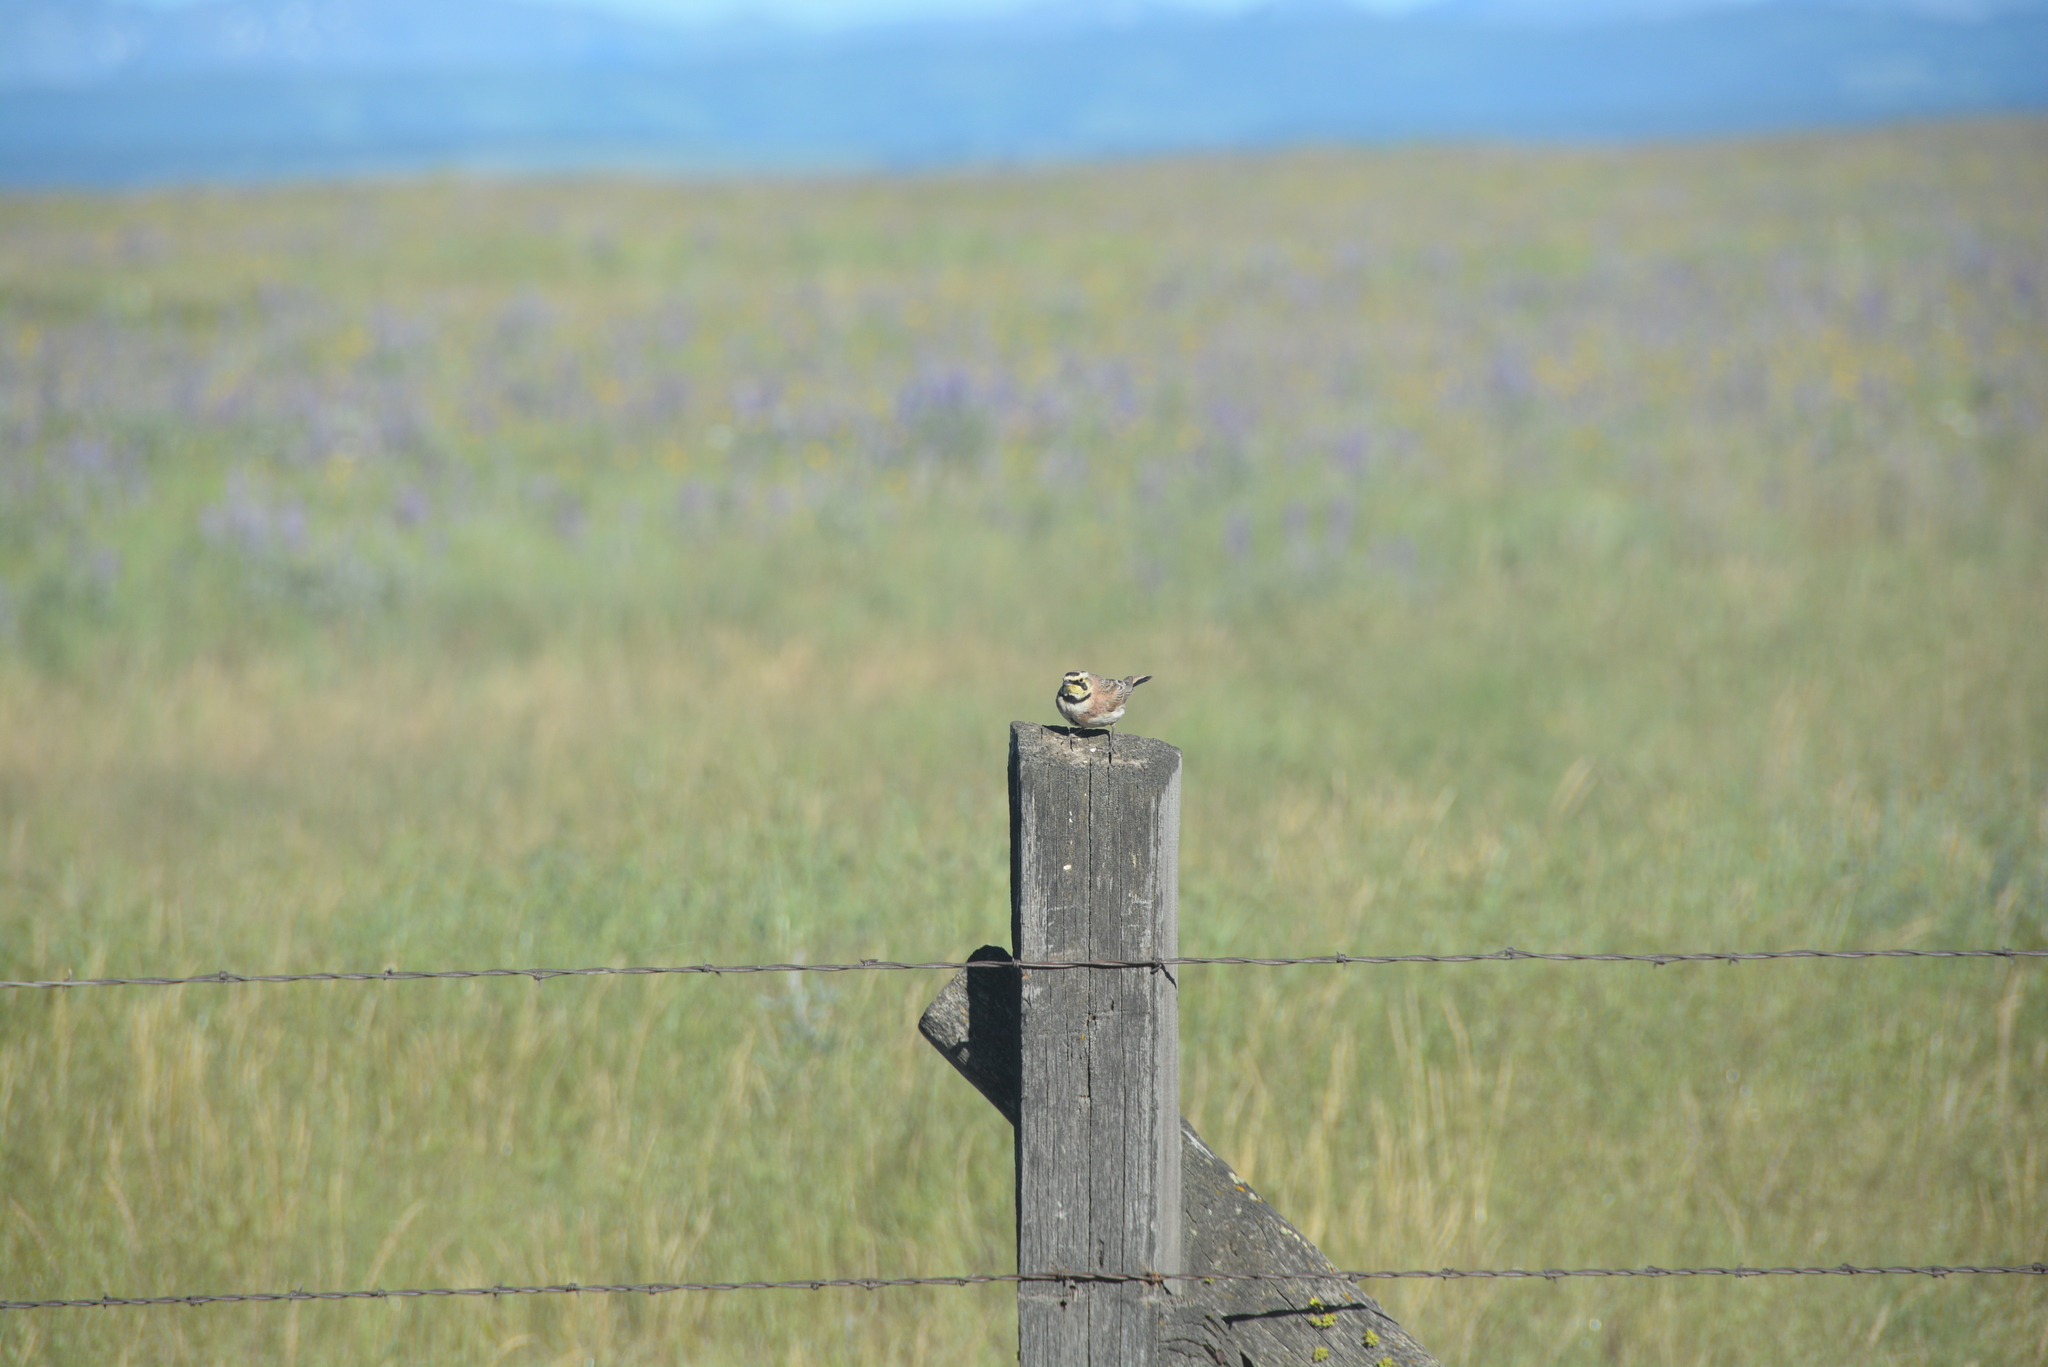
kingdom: Animalia
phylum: Chordata
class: Aves
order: Passeriformes
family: Alaudidae
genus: Eremophila
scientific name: Eremophila alpestris
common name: Horned lark
